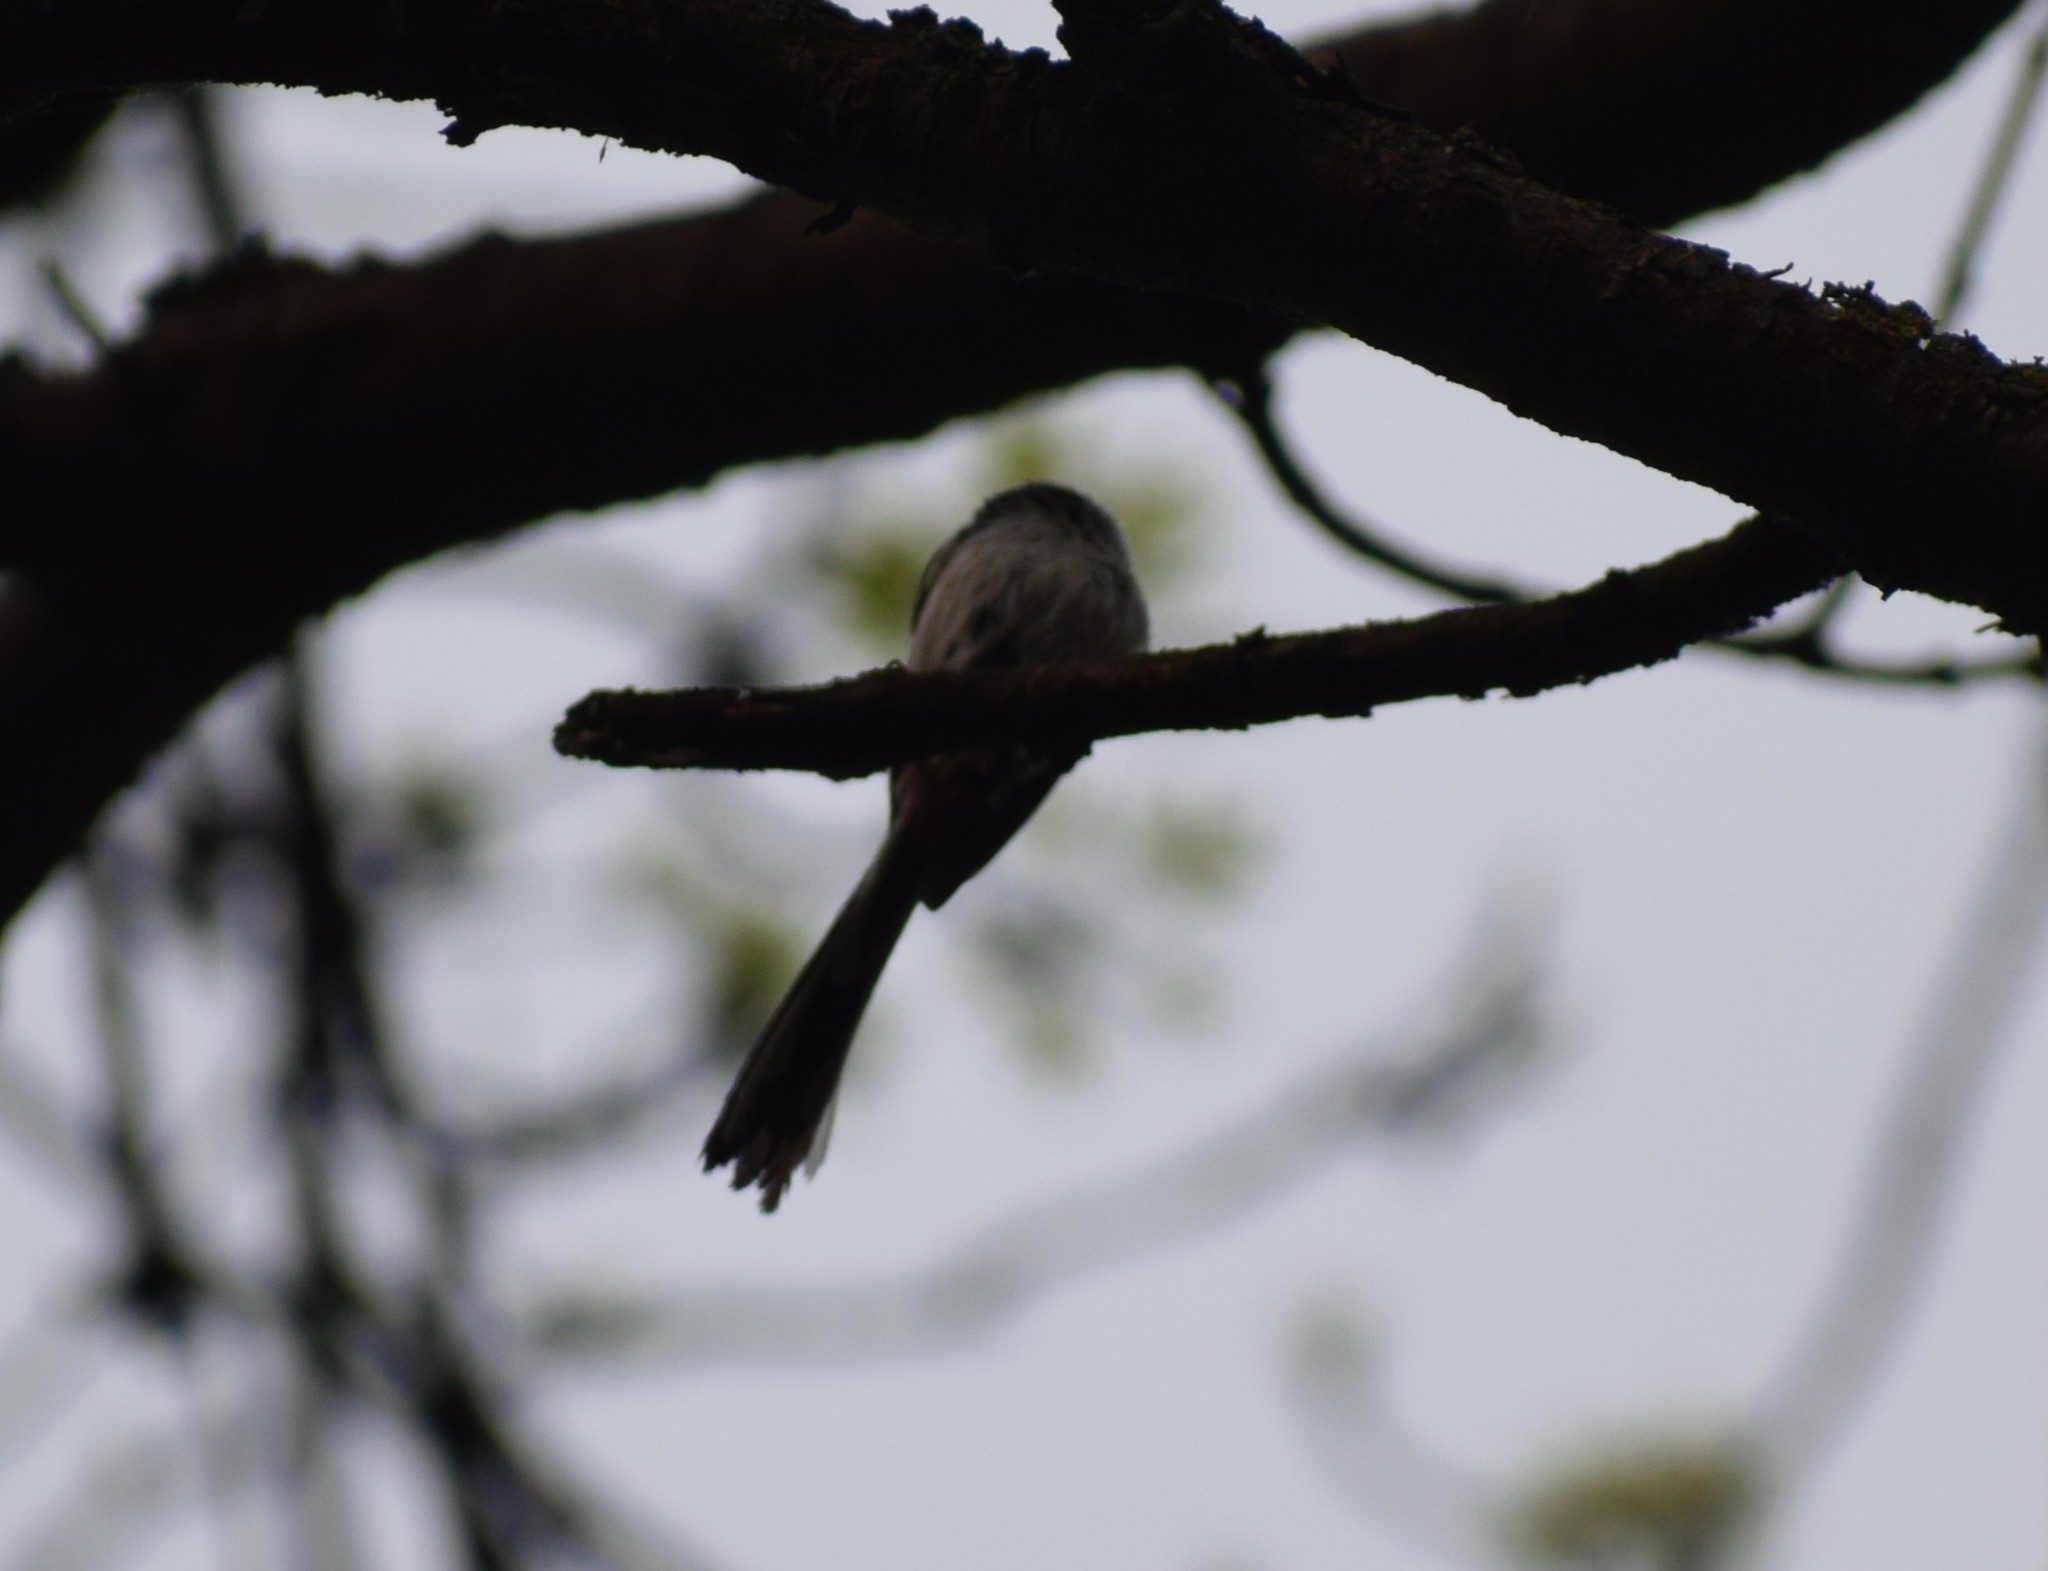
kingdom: Animalia
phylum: Chordata
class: Aves
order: Passeriformes
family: Aegithalidae
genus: Aegithalos
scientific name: Aegithalos caudatus
